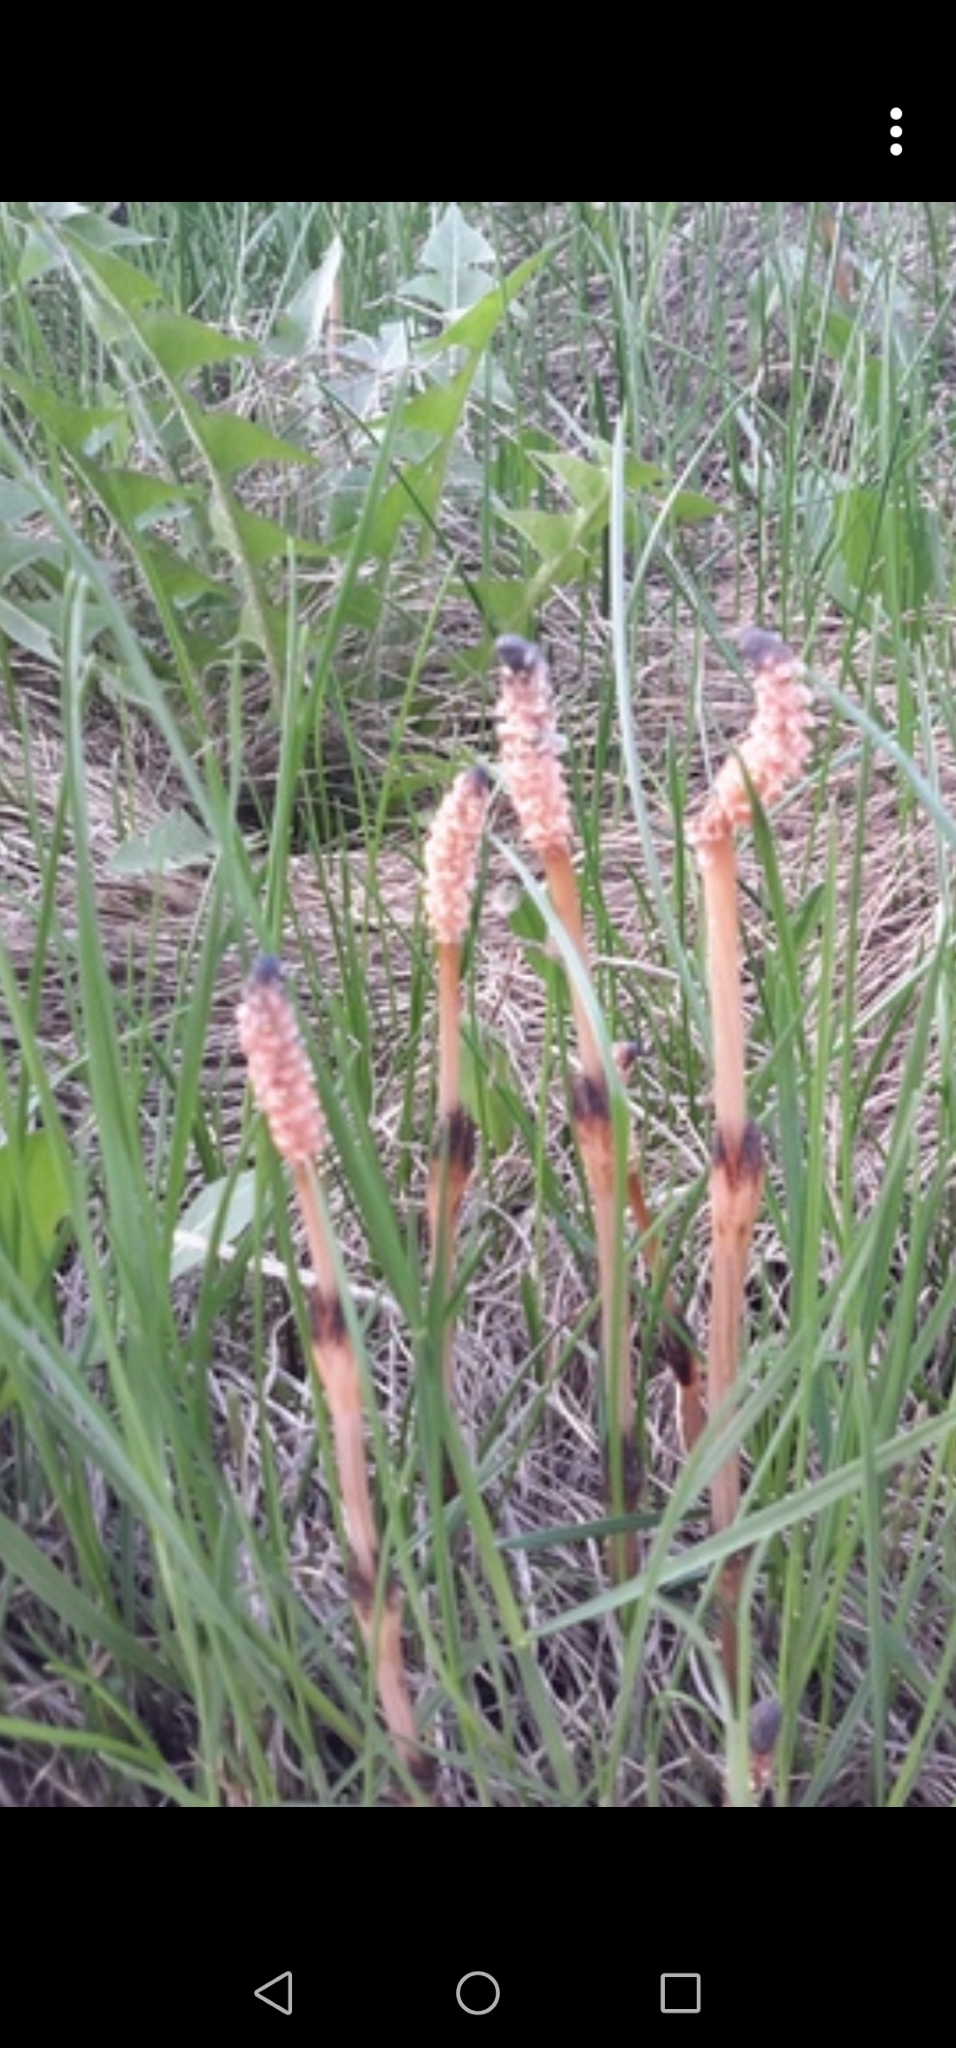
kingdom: Plantae
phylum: Tracheophyta
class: Polypodiopsida
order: Equisetales
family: Equisetaceae
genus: Equisetum
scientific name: Equisetum arvense
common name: Field horsetail
